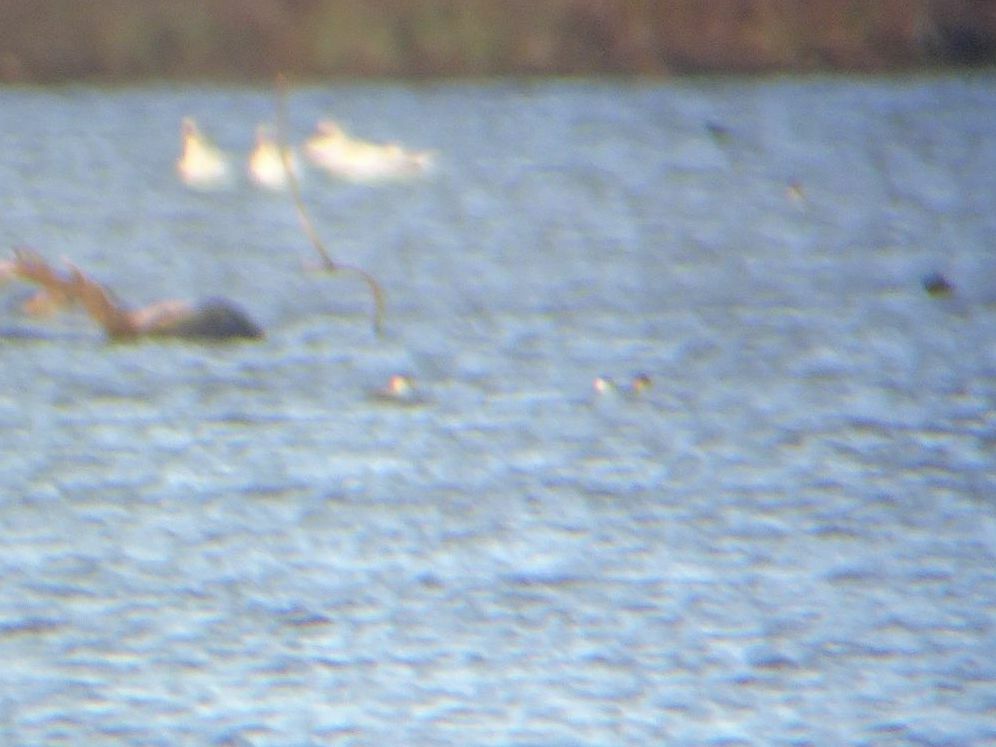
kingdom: Animalia
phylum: Chordata
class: Aves
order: Anseriformes
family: Anatidae
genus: Mergellus
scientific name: Mergellus albellus
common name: Smew
